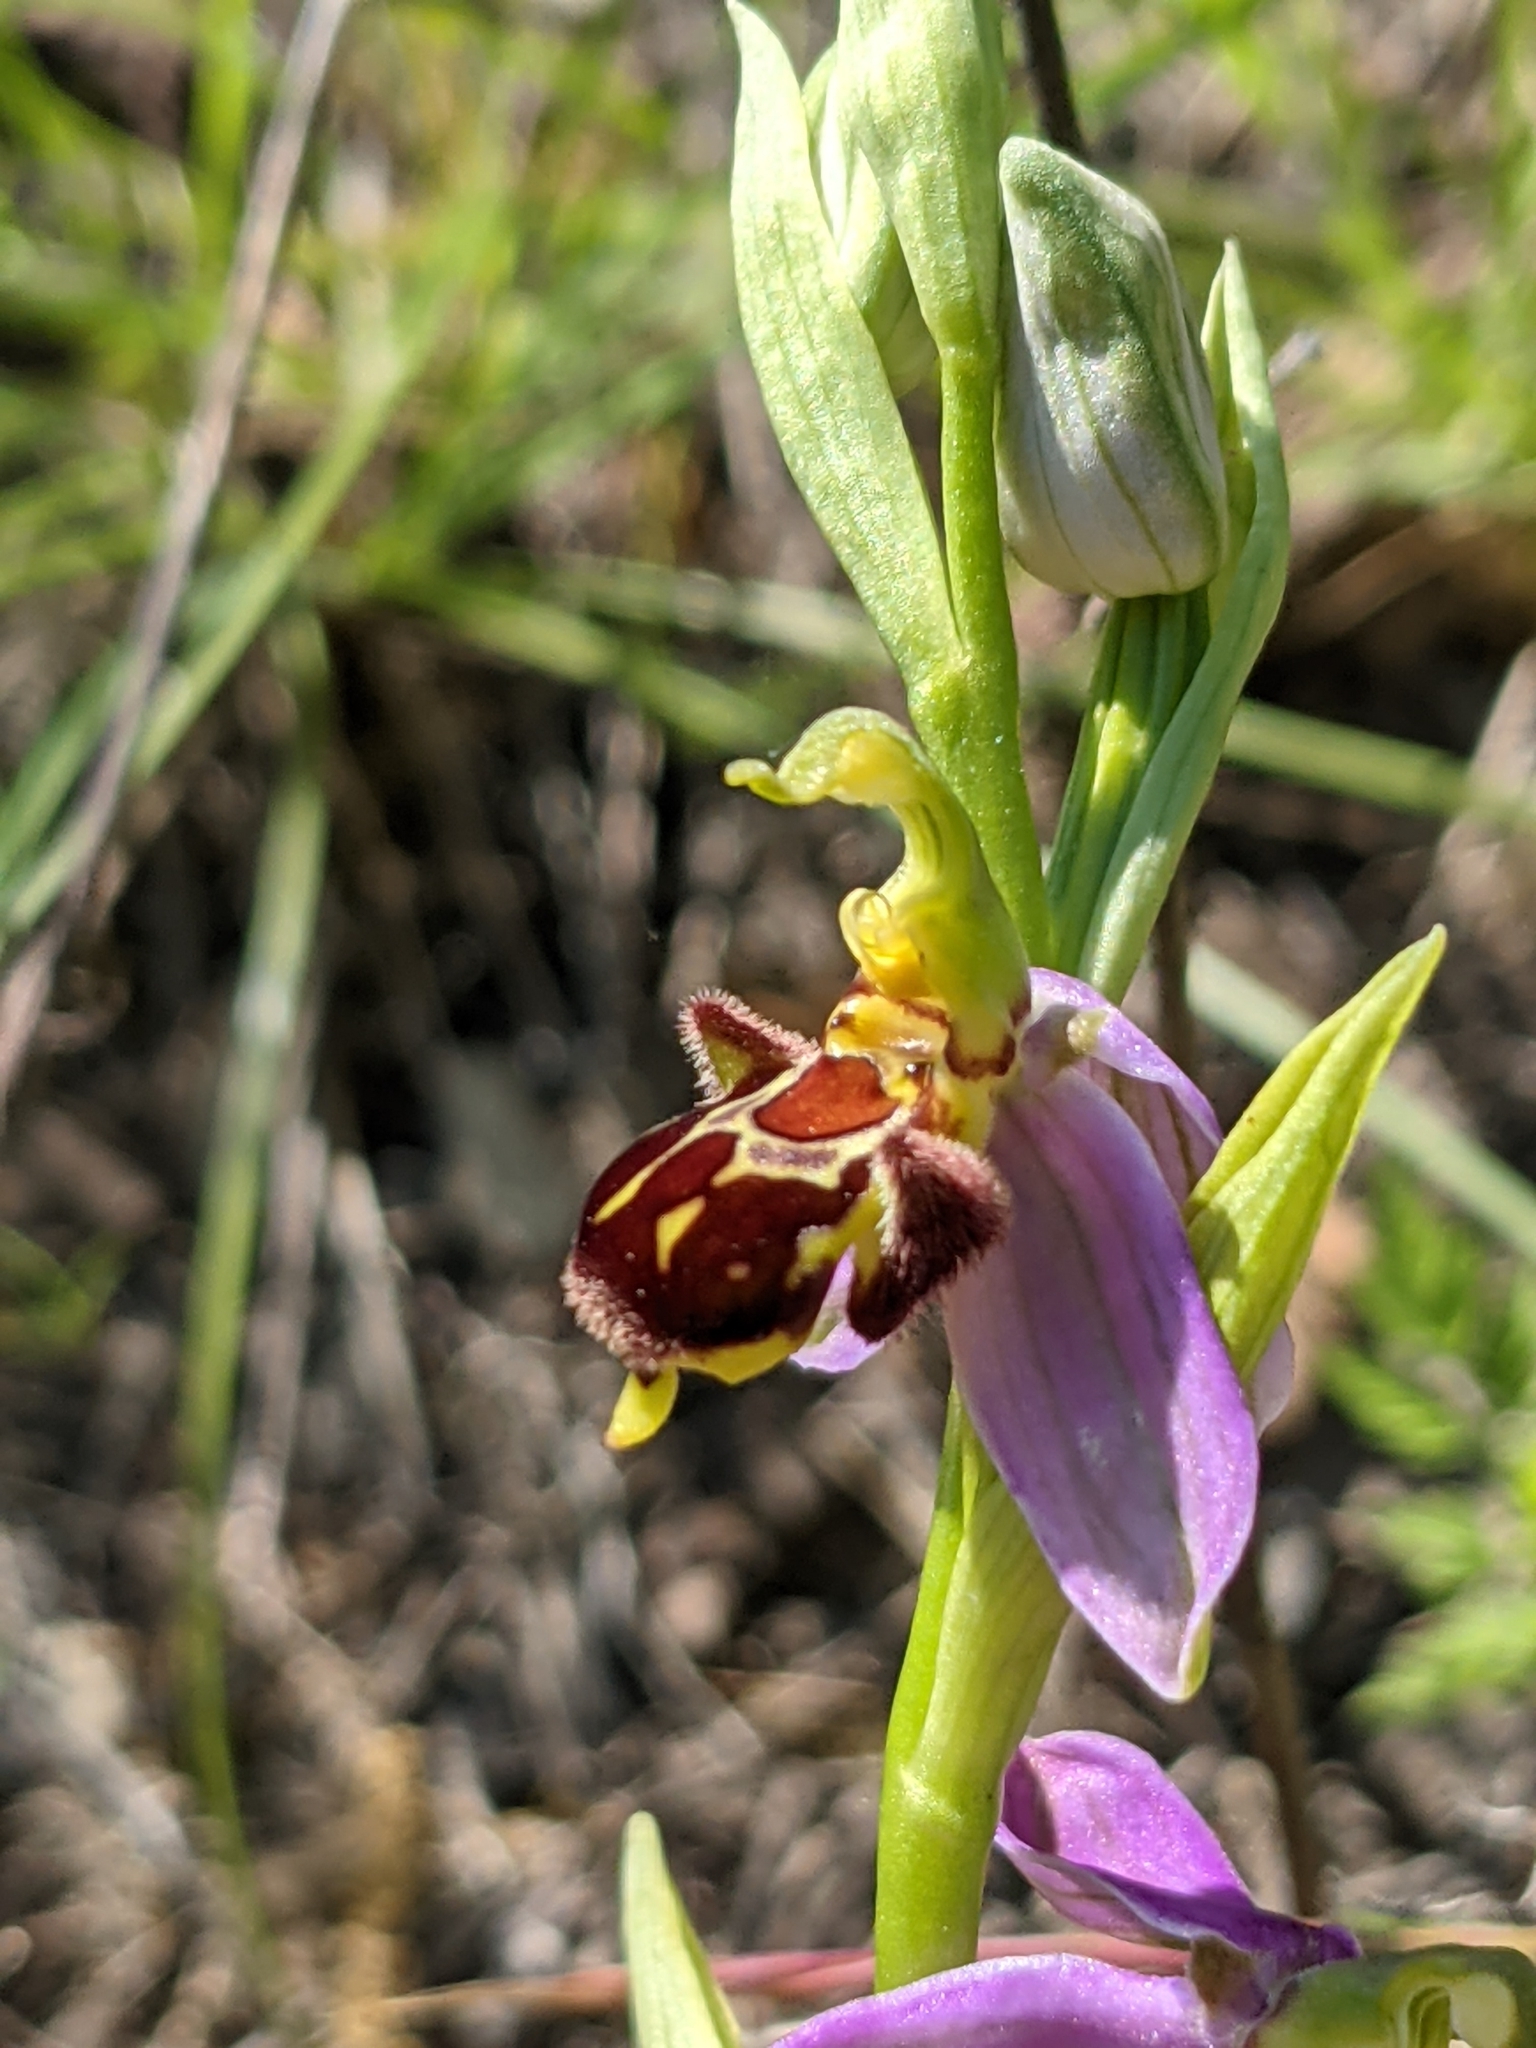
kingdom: Plantae
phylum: Tracheophyta
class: Liliopsida
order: Asparagales
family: Orchidaceae
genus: Ophrys
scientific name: Ophrys apifera
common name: Bee orchid
